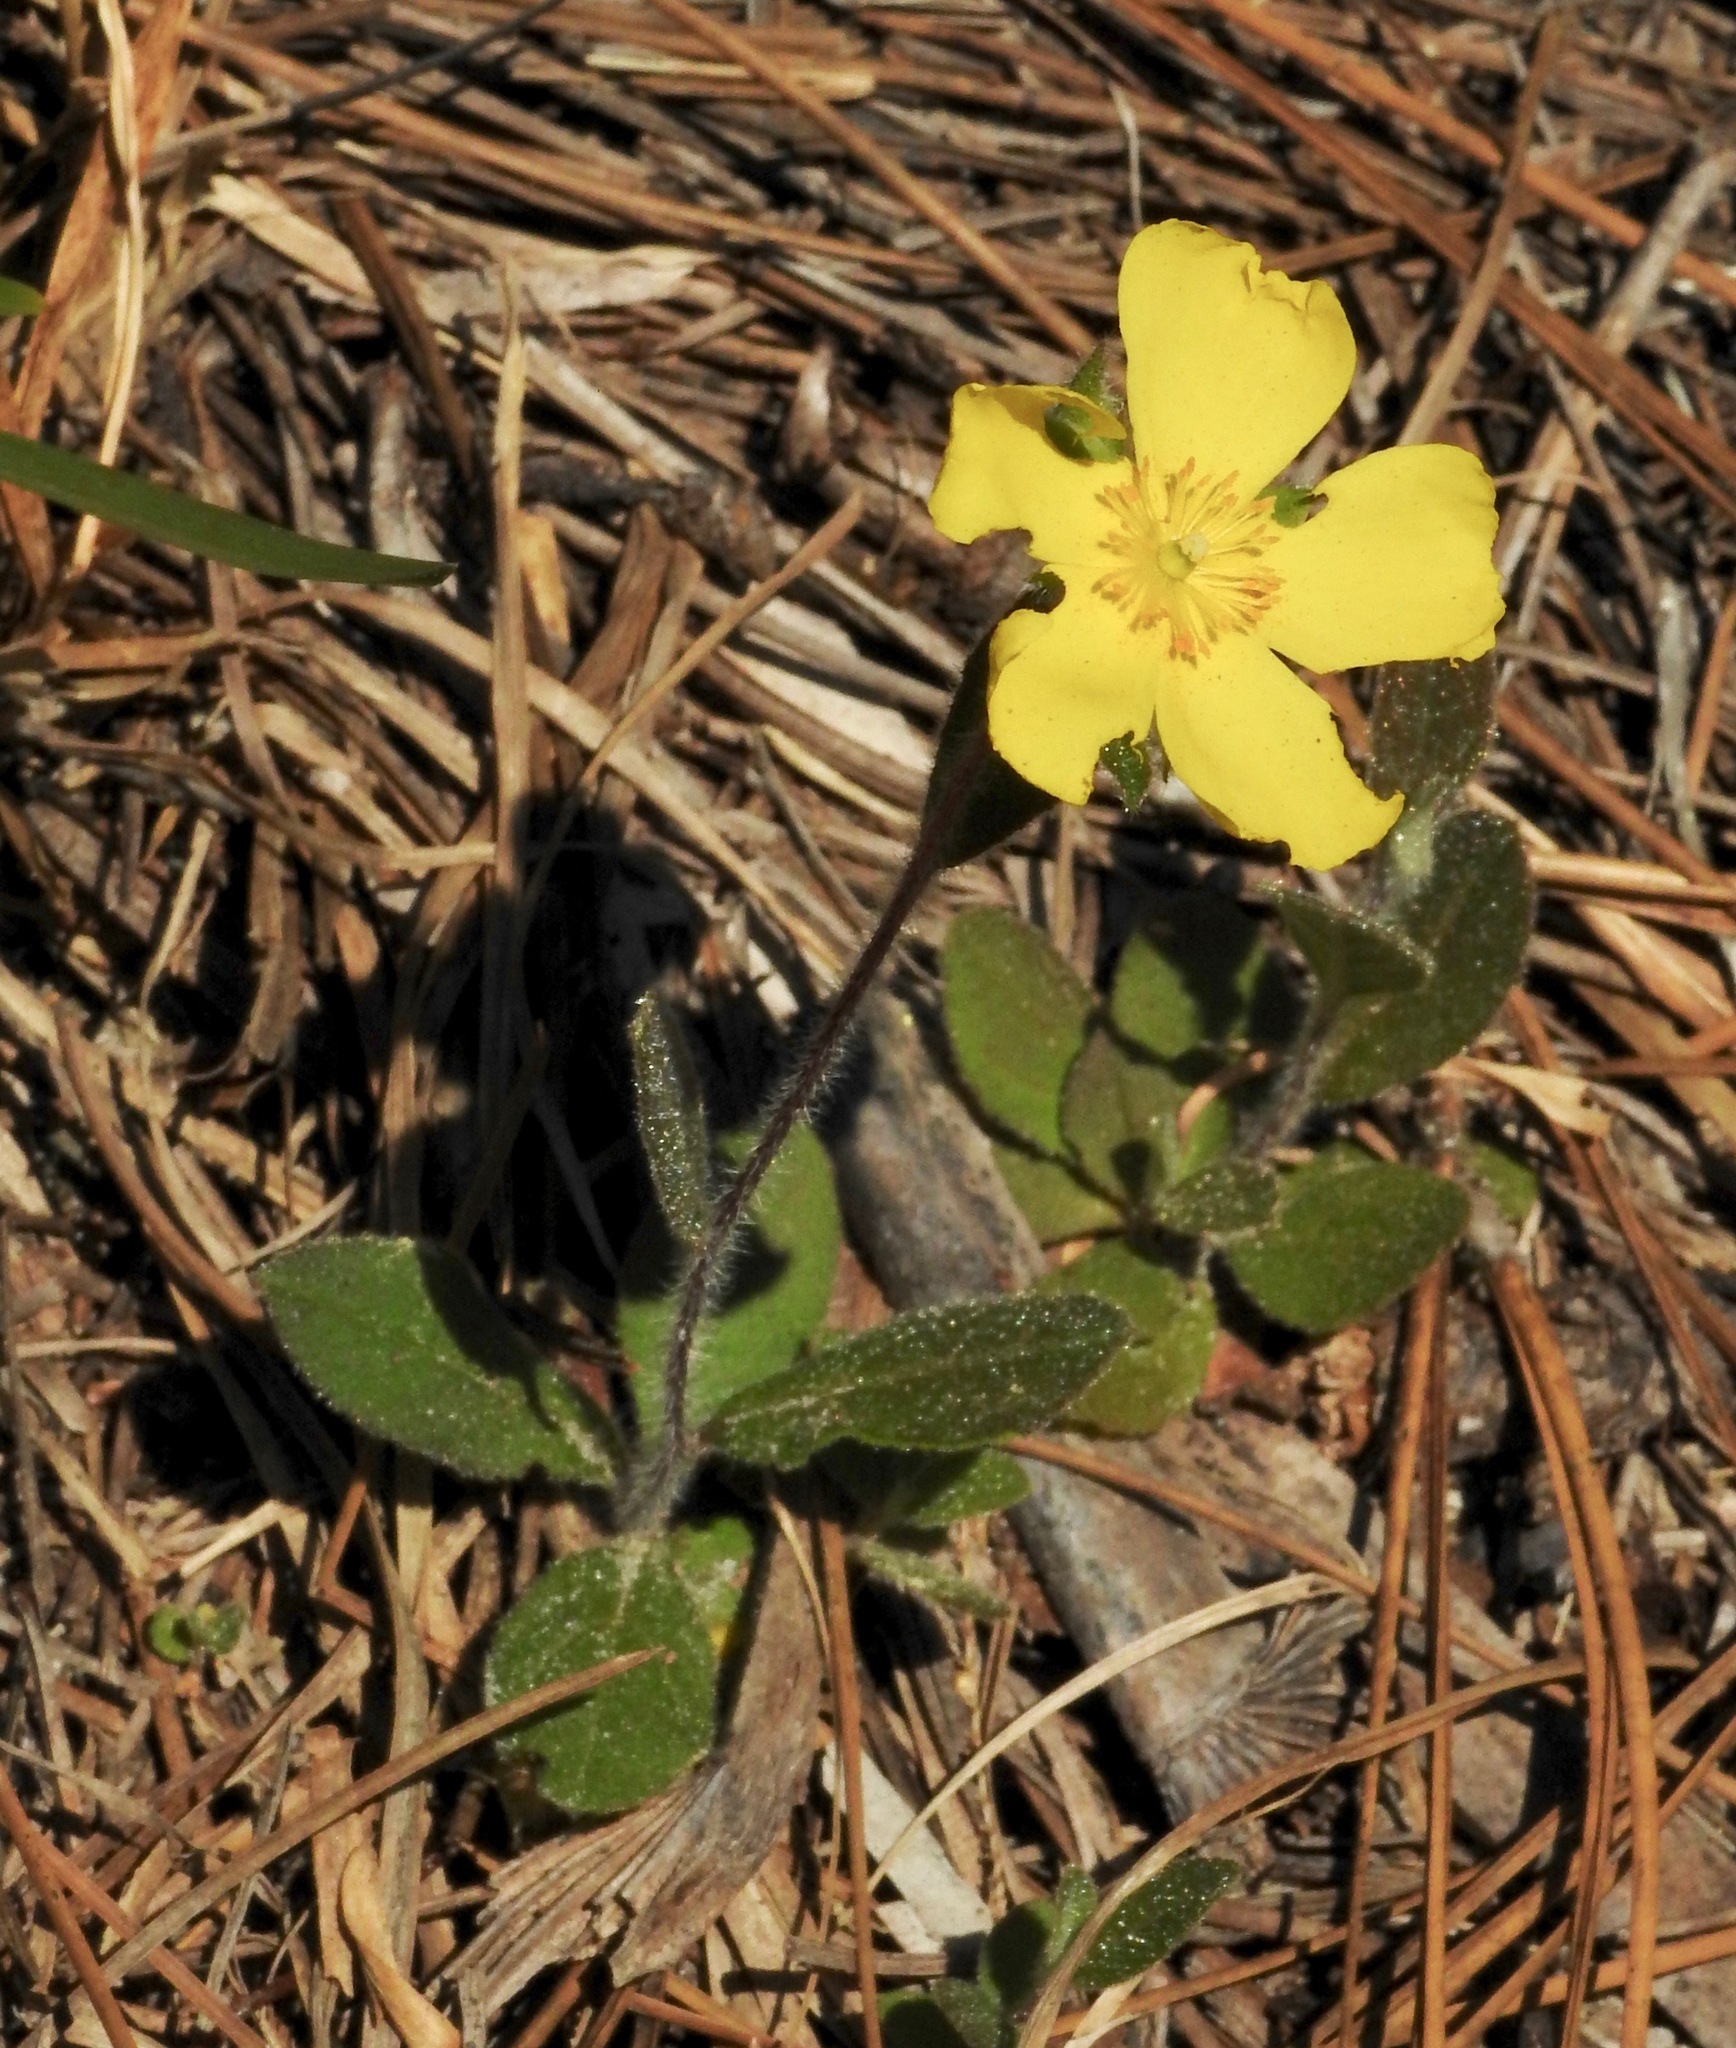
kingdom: Plantae
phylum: Tracheophyta
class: Magnoliopsida
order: Malvales
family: Cistaceae
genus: Crocanthemum
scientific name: Crocanthemum carolinianum
